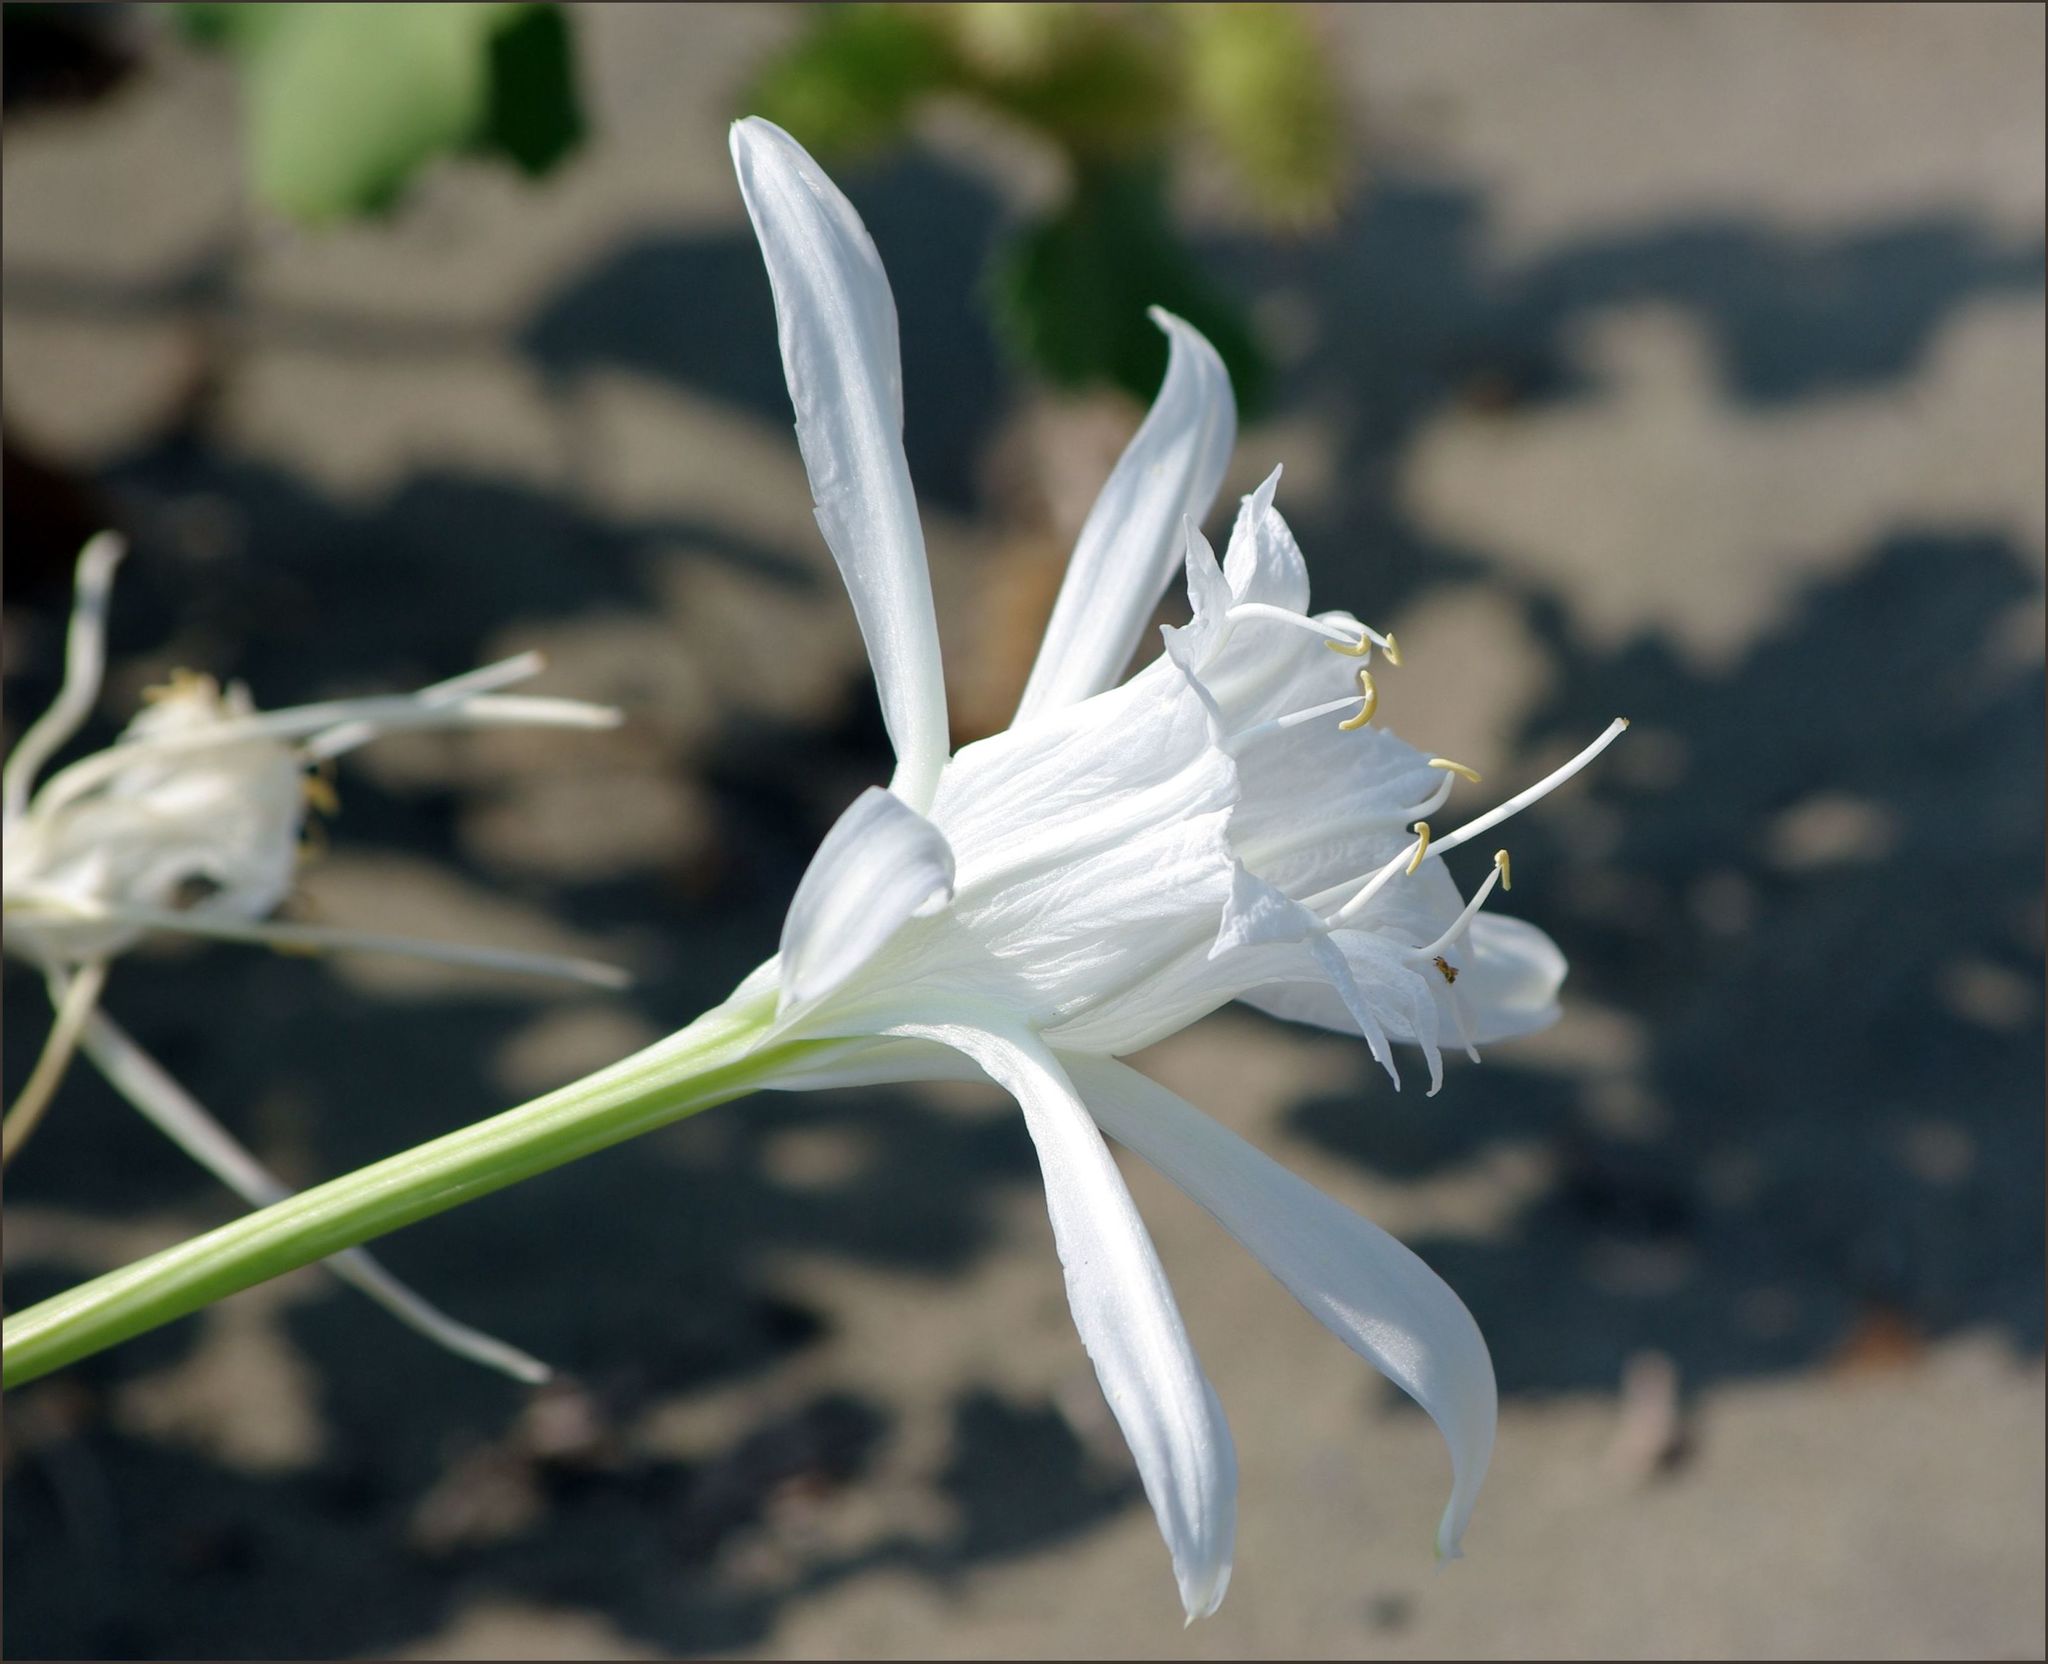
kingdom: Plantae
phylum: Tracheophyta
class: Liliopsida
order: Asparagales
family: Amaryllidaceae
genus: Pancratium
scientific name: Pancratium maritimum
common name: Sea-daffodil
